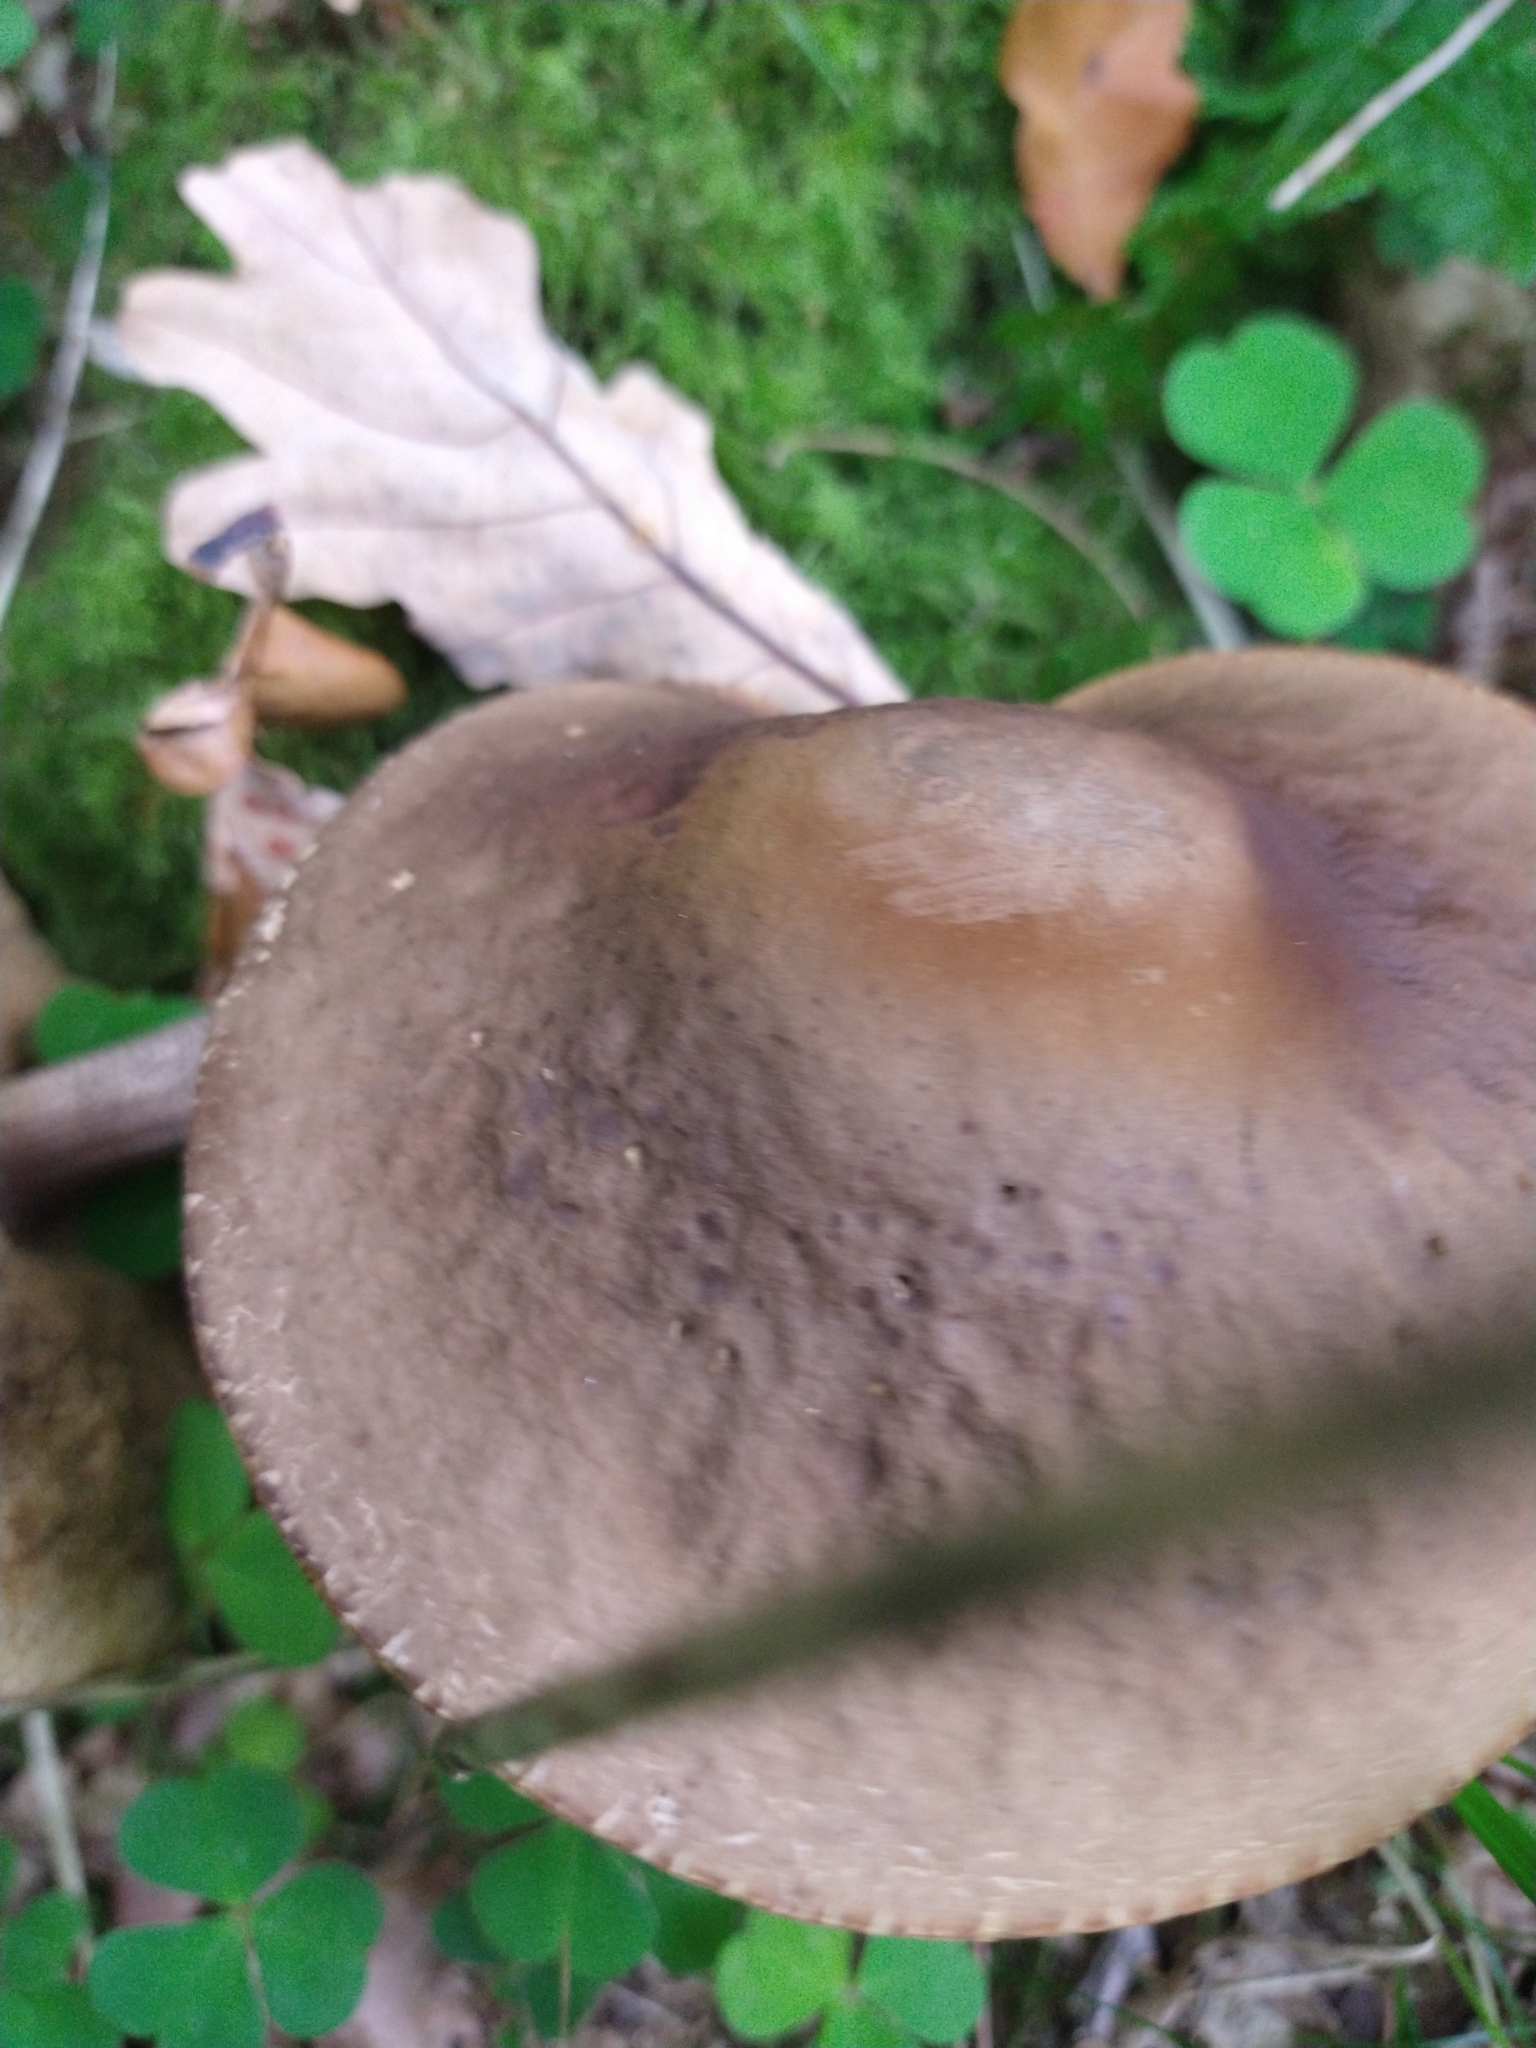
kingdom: Fungi
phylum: Basidiomycota
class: Agaricomycetes
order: Boletales
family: Boletaceae
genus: Leccinellum
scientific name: Leccinellum pseudoscabrum
